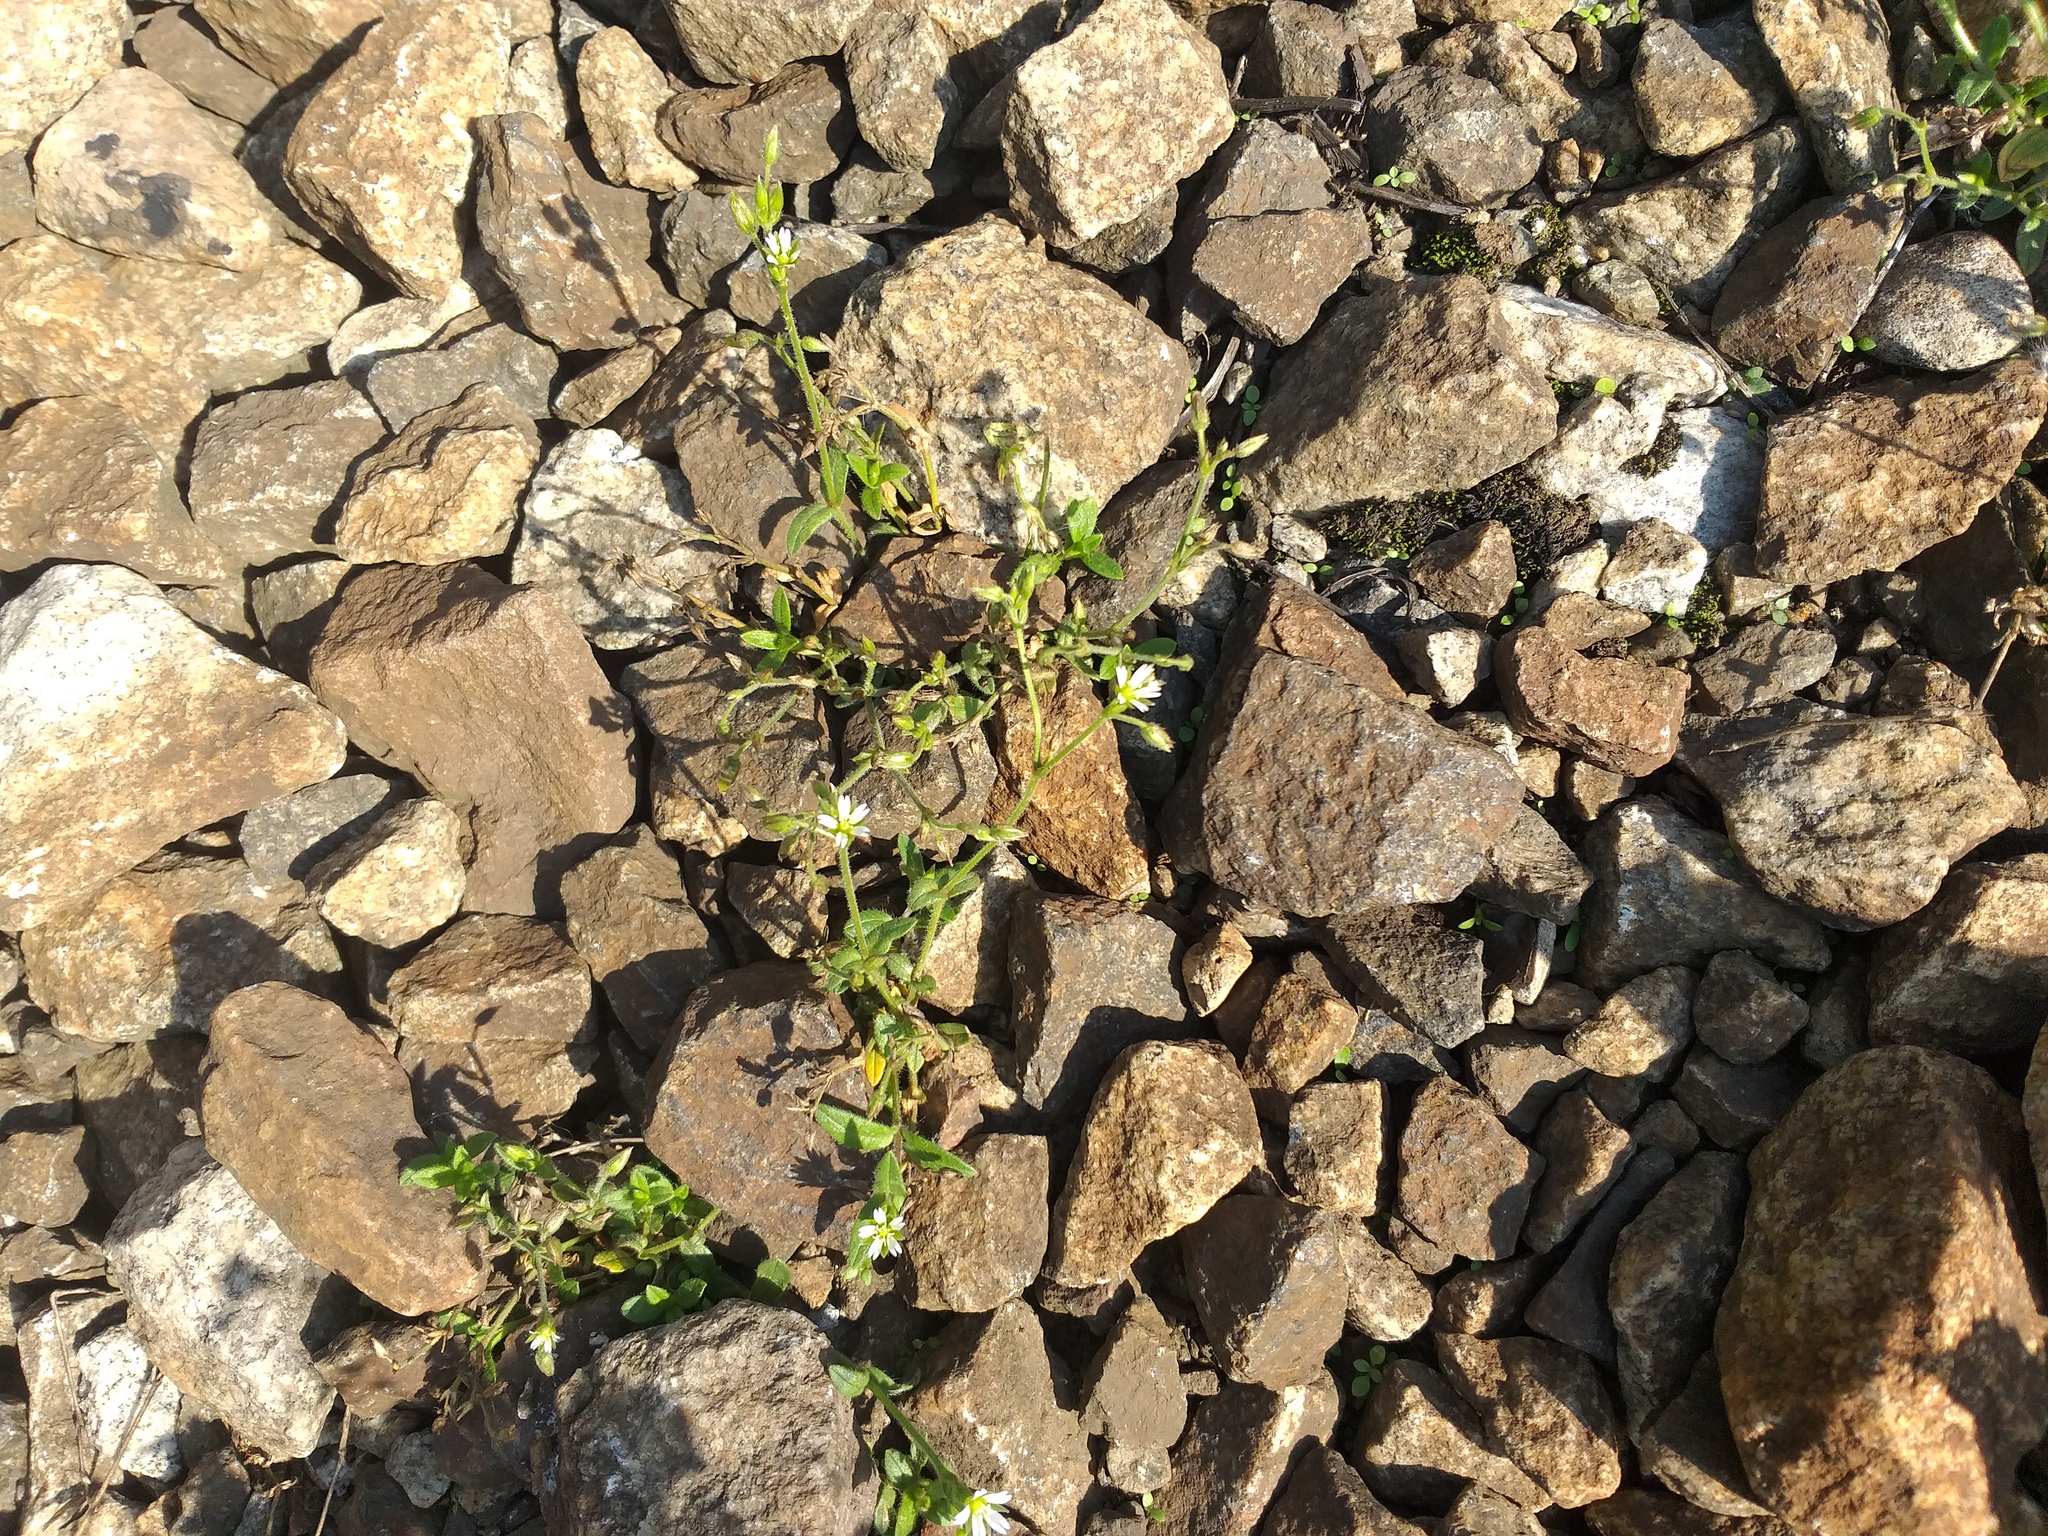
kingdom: Plantae
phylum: Tracheophyta
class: Magnoliopsida
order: Caryophyllales
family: Caryophyllaceae
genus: Cerastium
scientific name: Cerastium holosteoides
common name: Big chickweed
